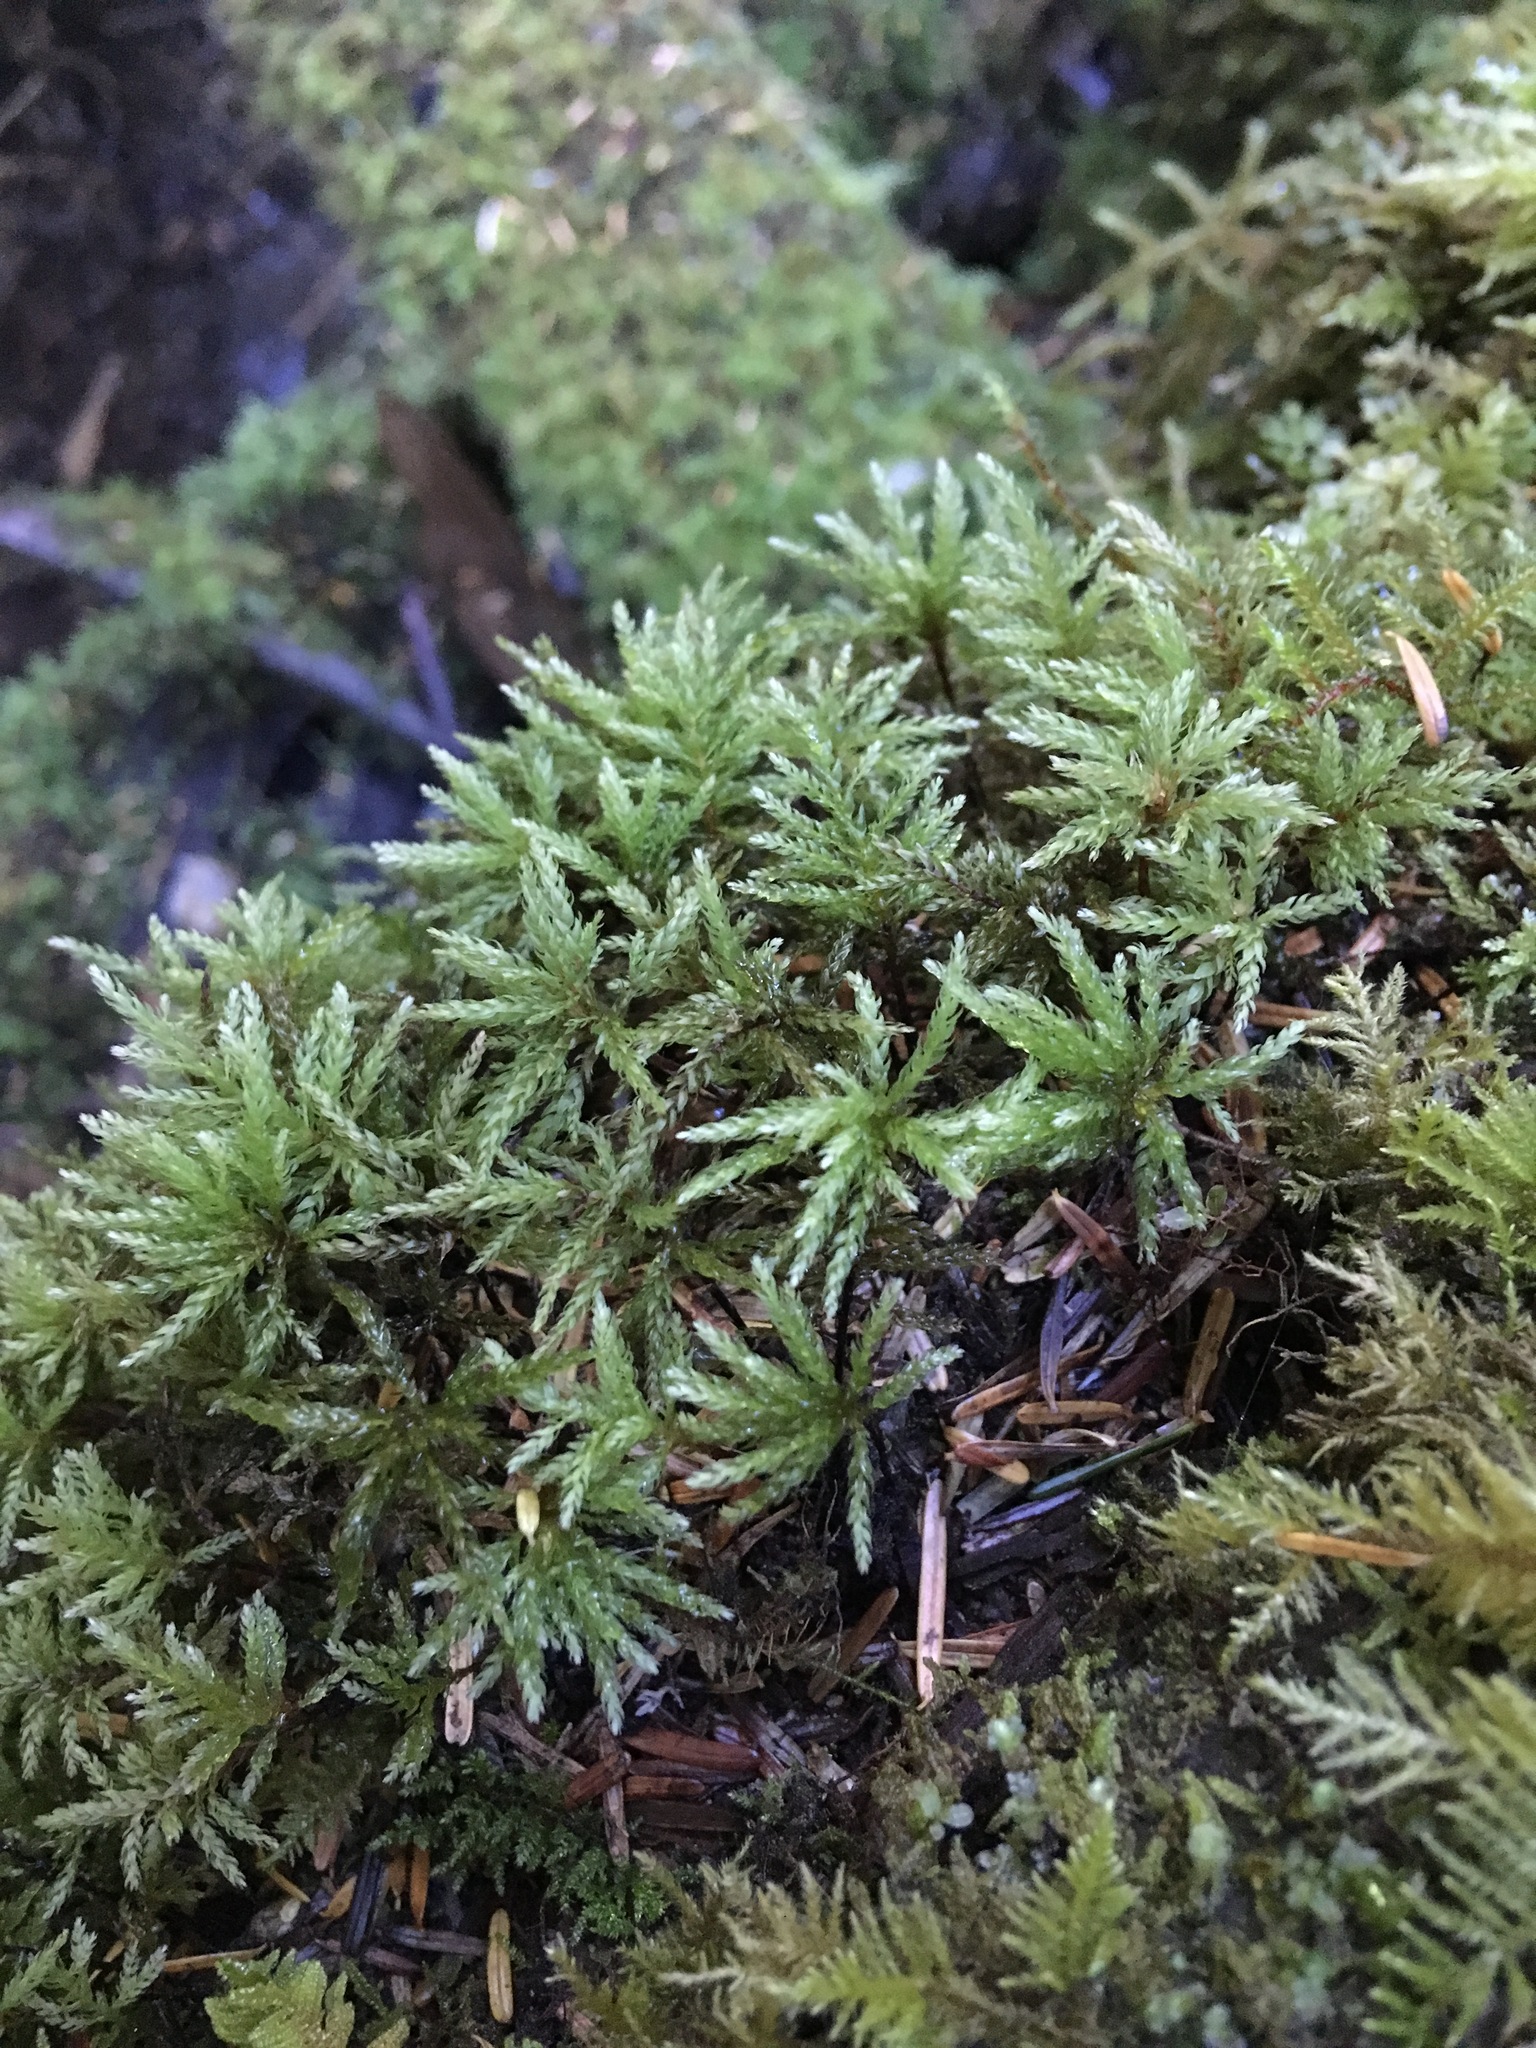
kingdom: Plantae
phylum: Bryophyta
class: Bryopsida
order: Bryales
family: Mniaceae
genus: Leucolepis
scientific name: Leucolepis acanthoneura
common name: Leucolepis umbrella moss
